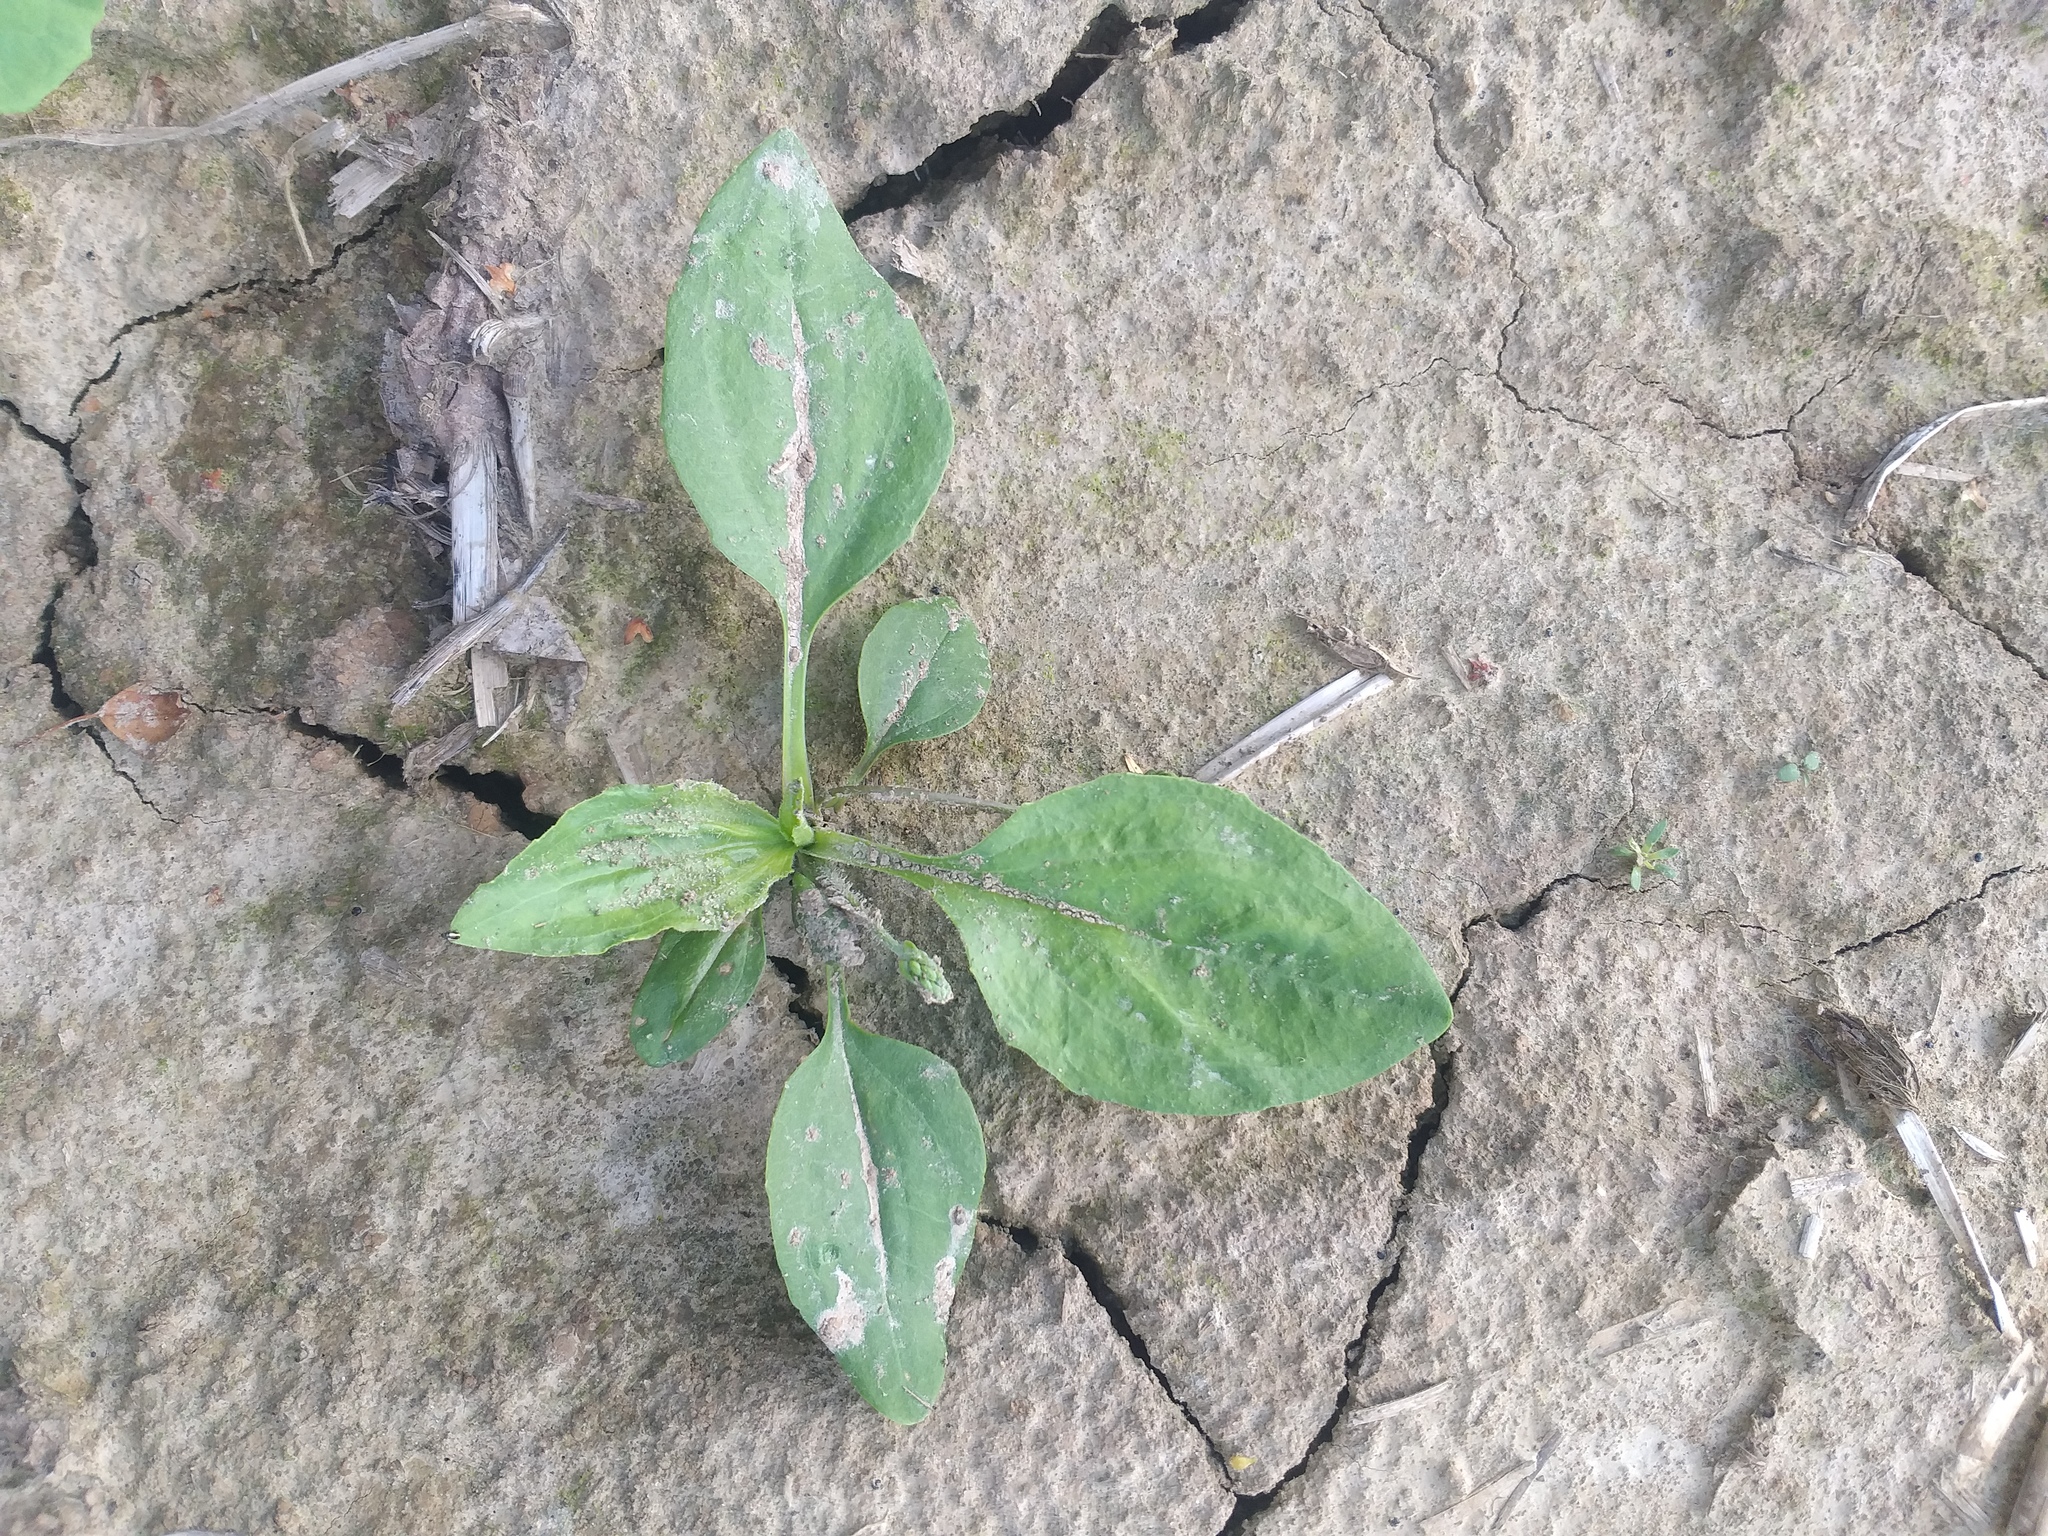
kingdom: Plantae
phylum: Tracheophyta
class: Magnoliopsida
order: Lamiales
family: Plantaginaceae
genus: Plantago
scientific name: Plantago major
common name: Common plantain
